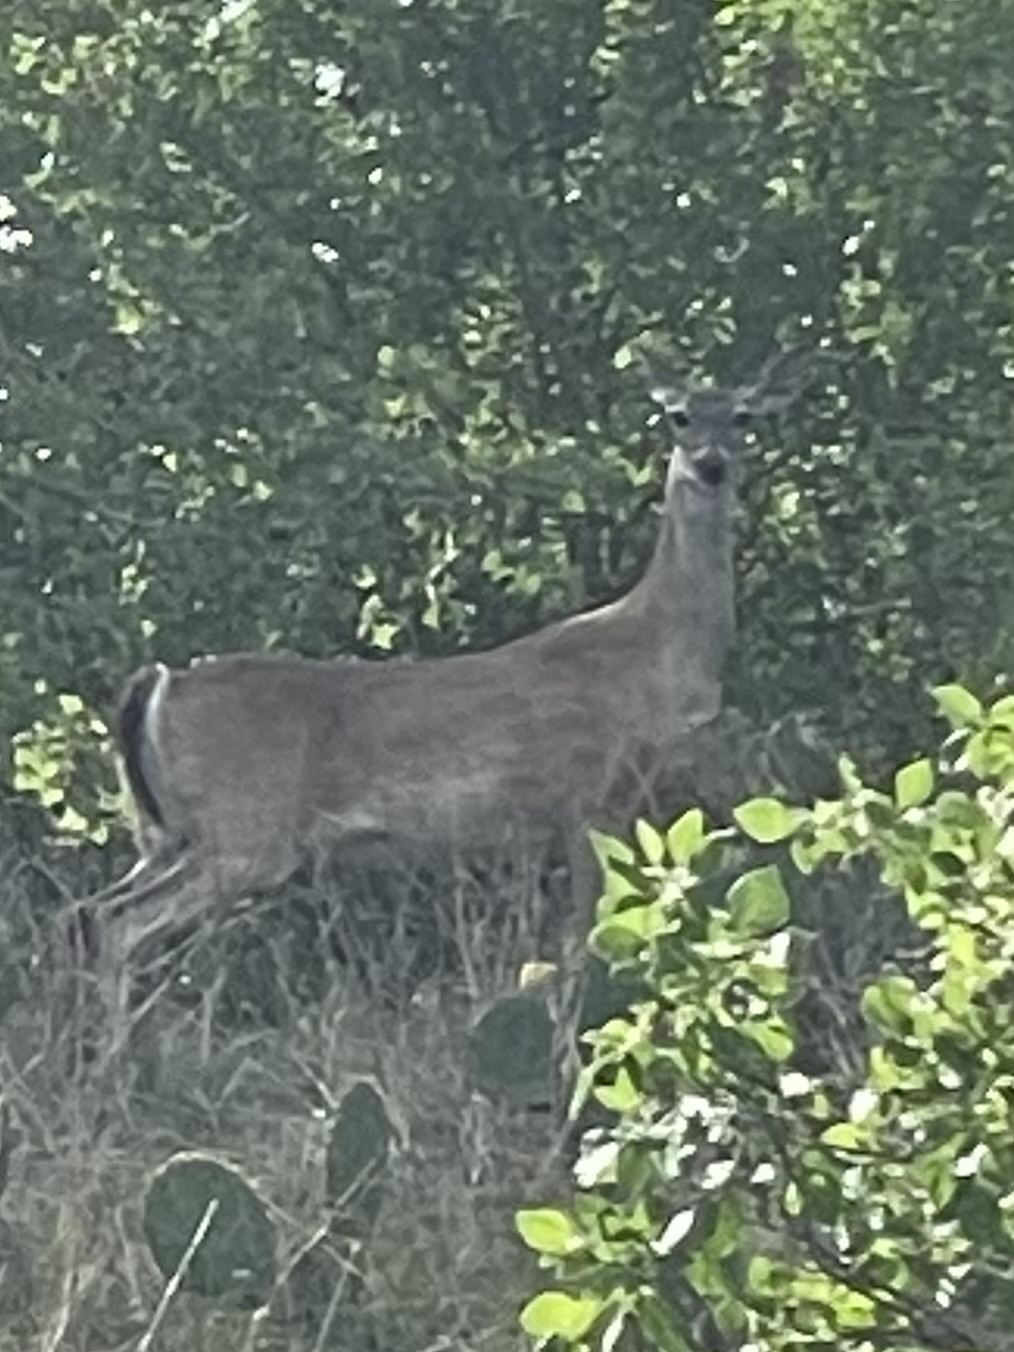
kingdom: Animalia
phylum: Chordata
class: Mammalia
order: Artiodactyla
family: Cervidae
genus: Odocoileus
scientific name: Odocoileus virginianus
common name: White-tailed deer
